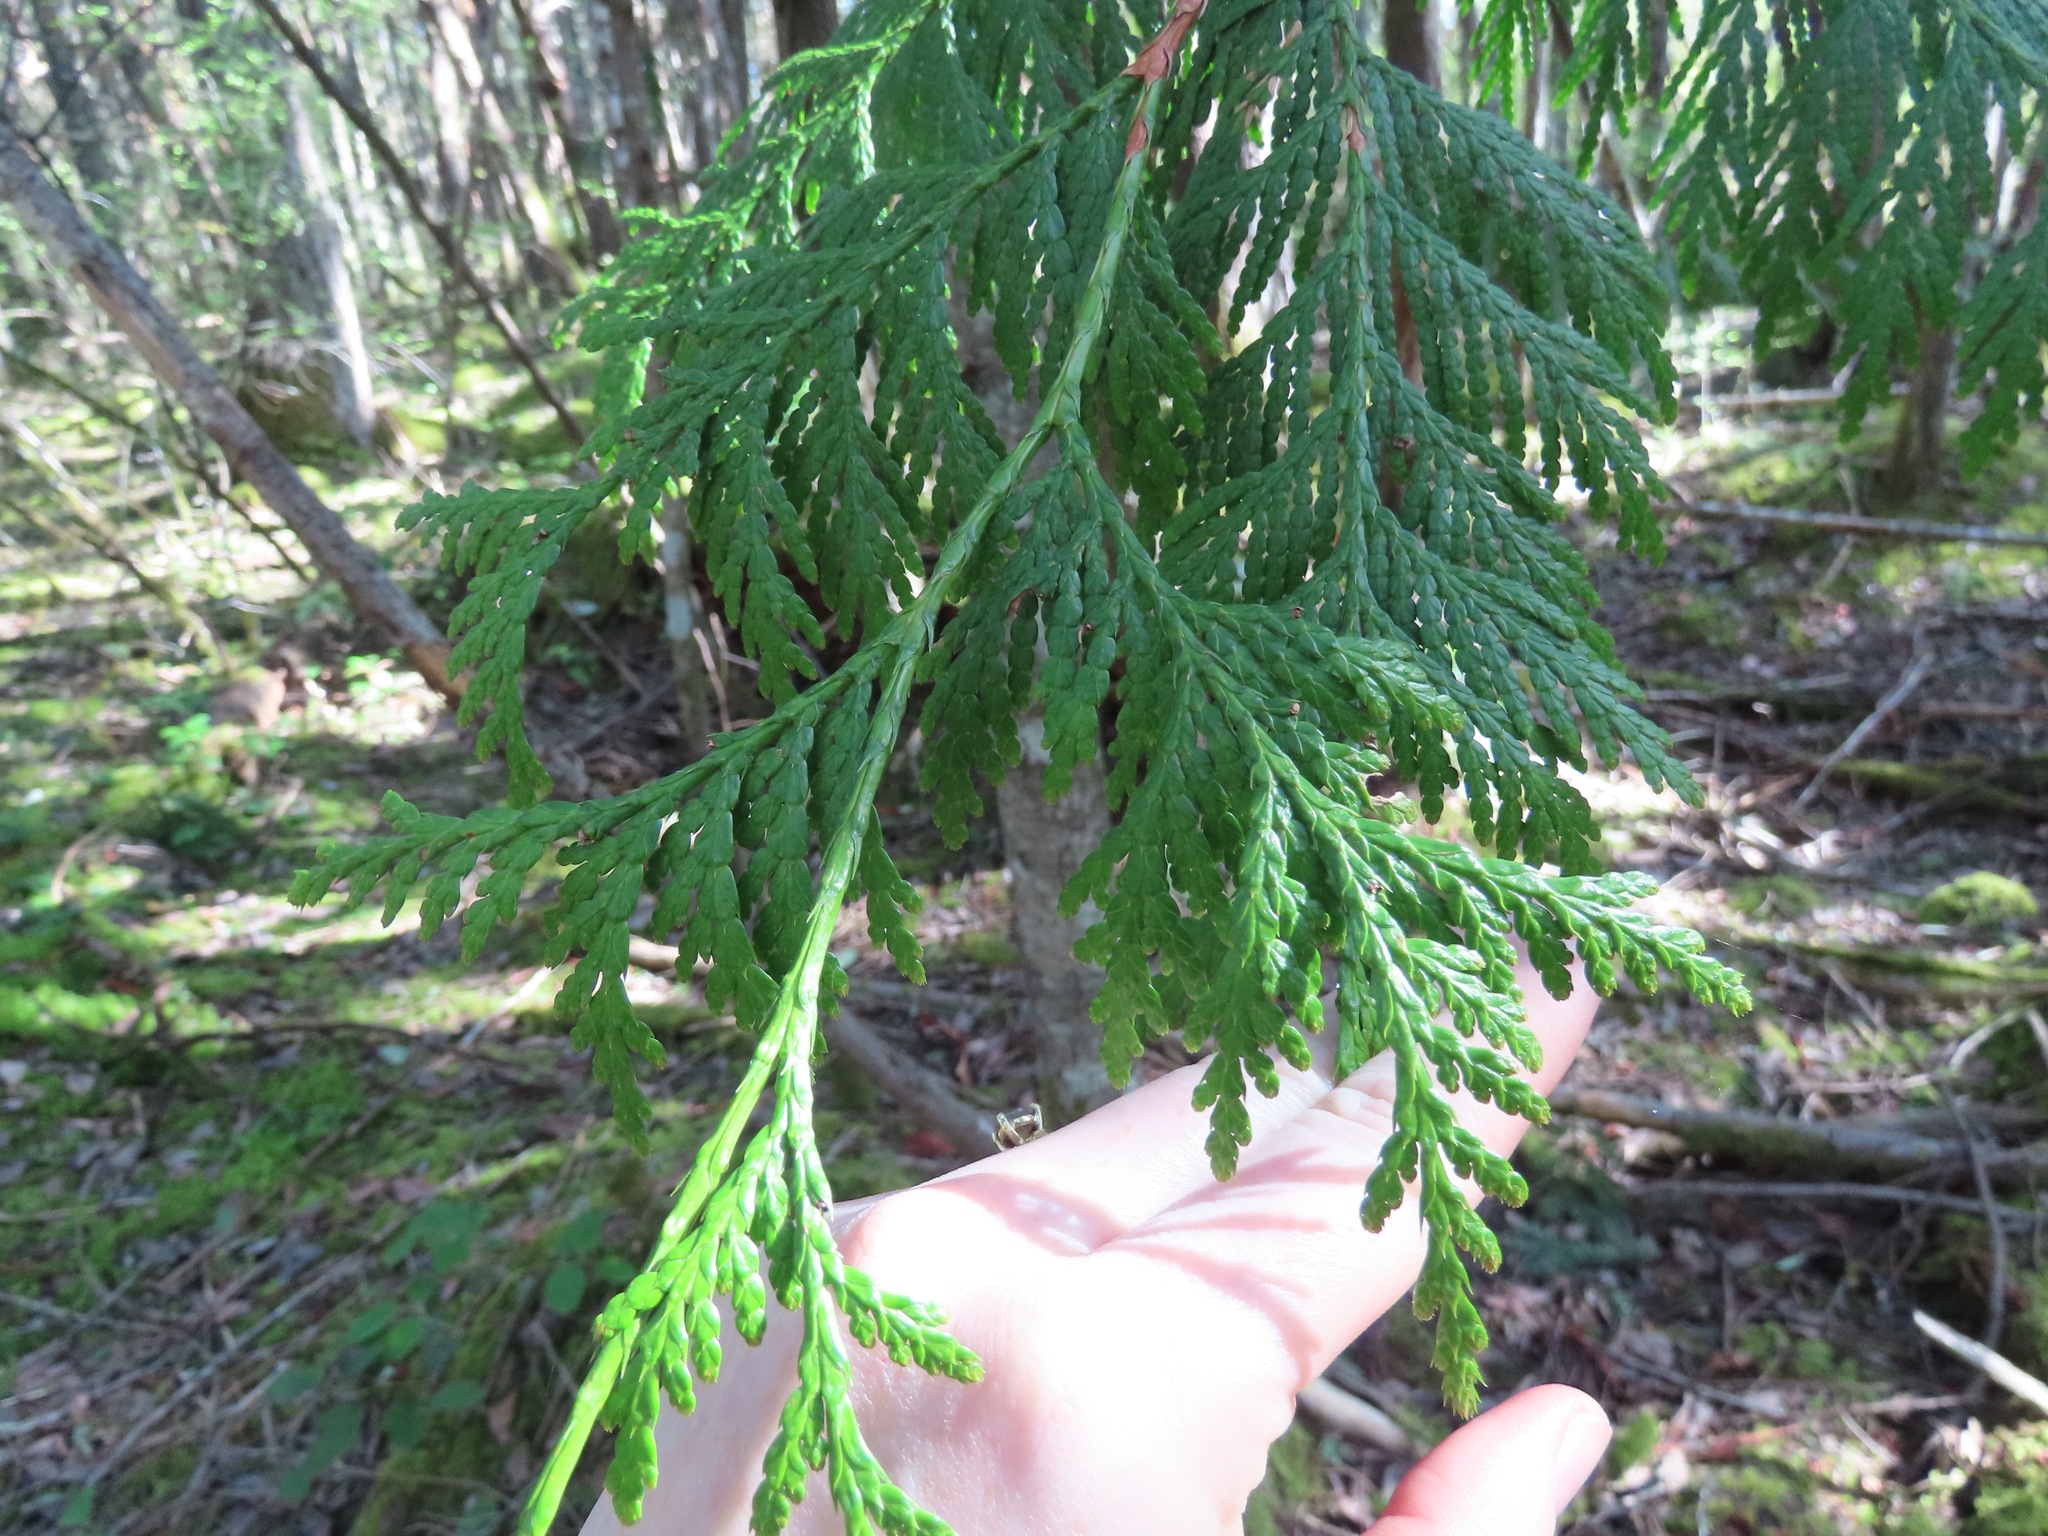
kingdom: Plantae
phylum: Tracheophyta
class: Pinopsida
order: Pinales
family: Cupressaceae
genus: Thuja
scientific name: Thuja plicata
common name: Western red-cedar
